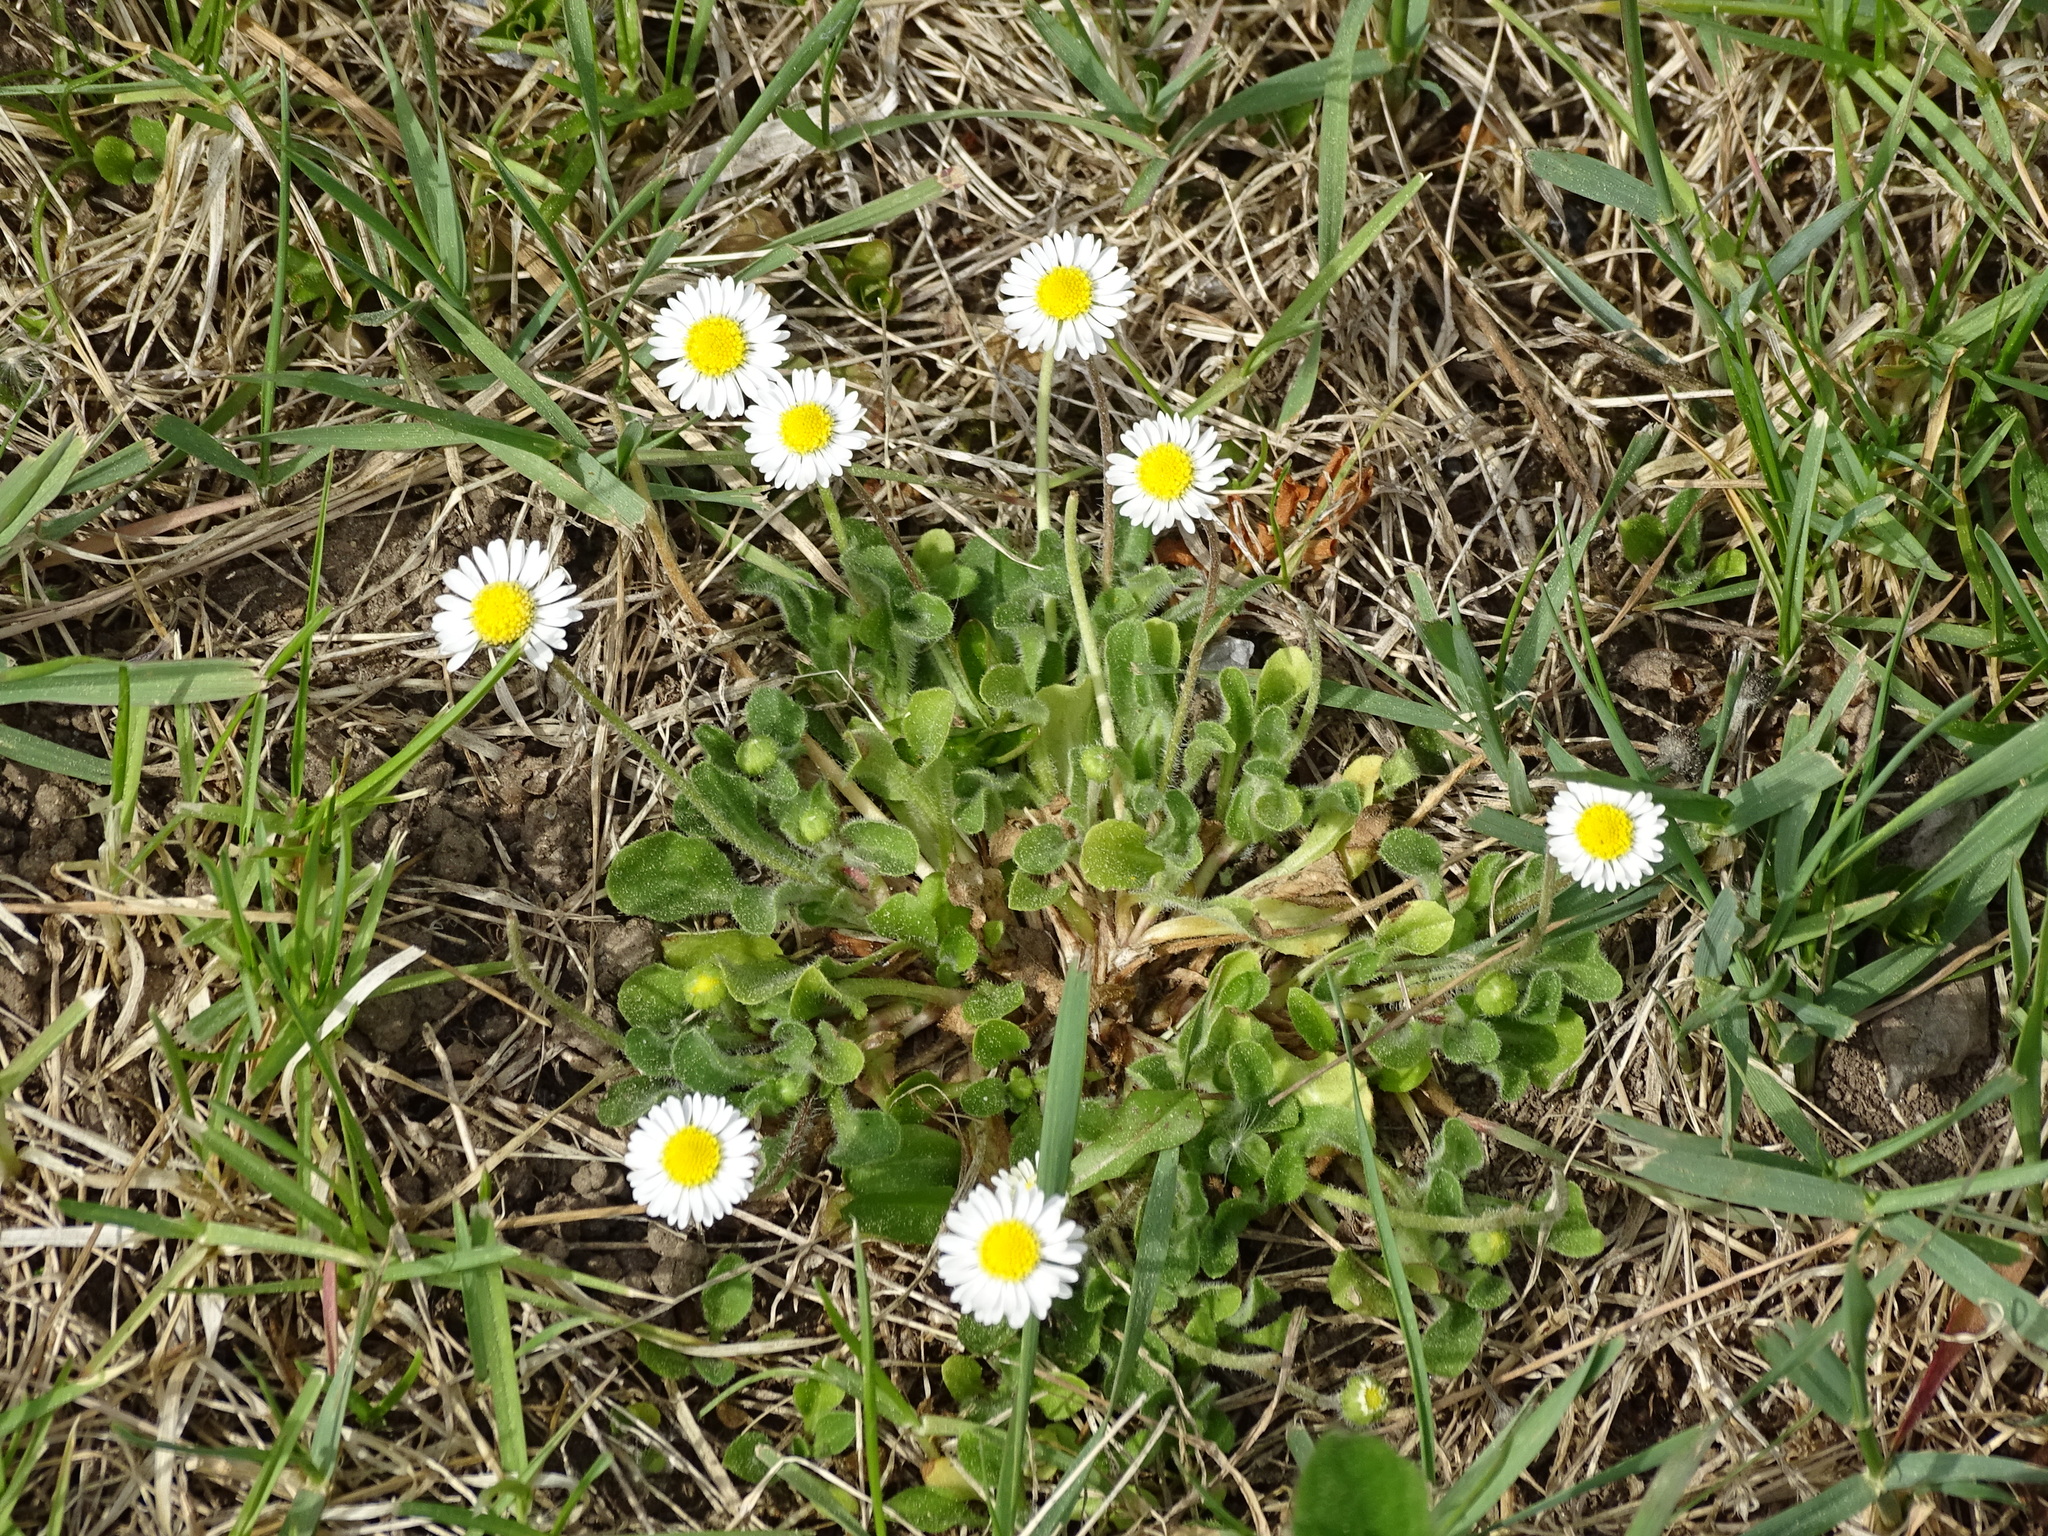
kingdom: Plantae
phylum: Tracheophyta
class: Magnoliopsida
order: Asterales
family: Asteraceae
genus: Bellis
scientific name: Bellis perennis
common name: Lawndaisy
